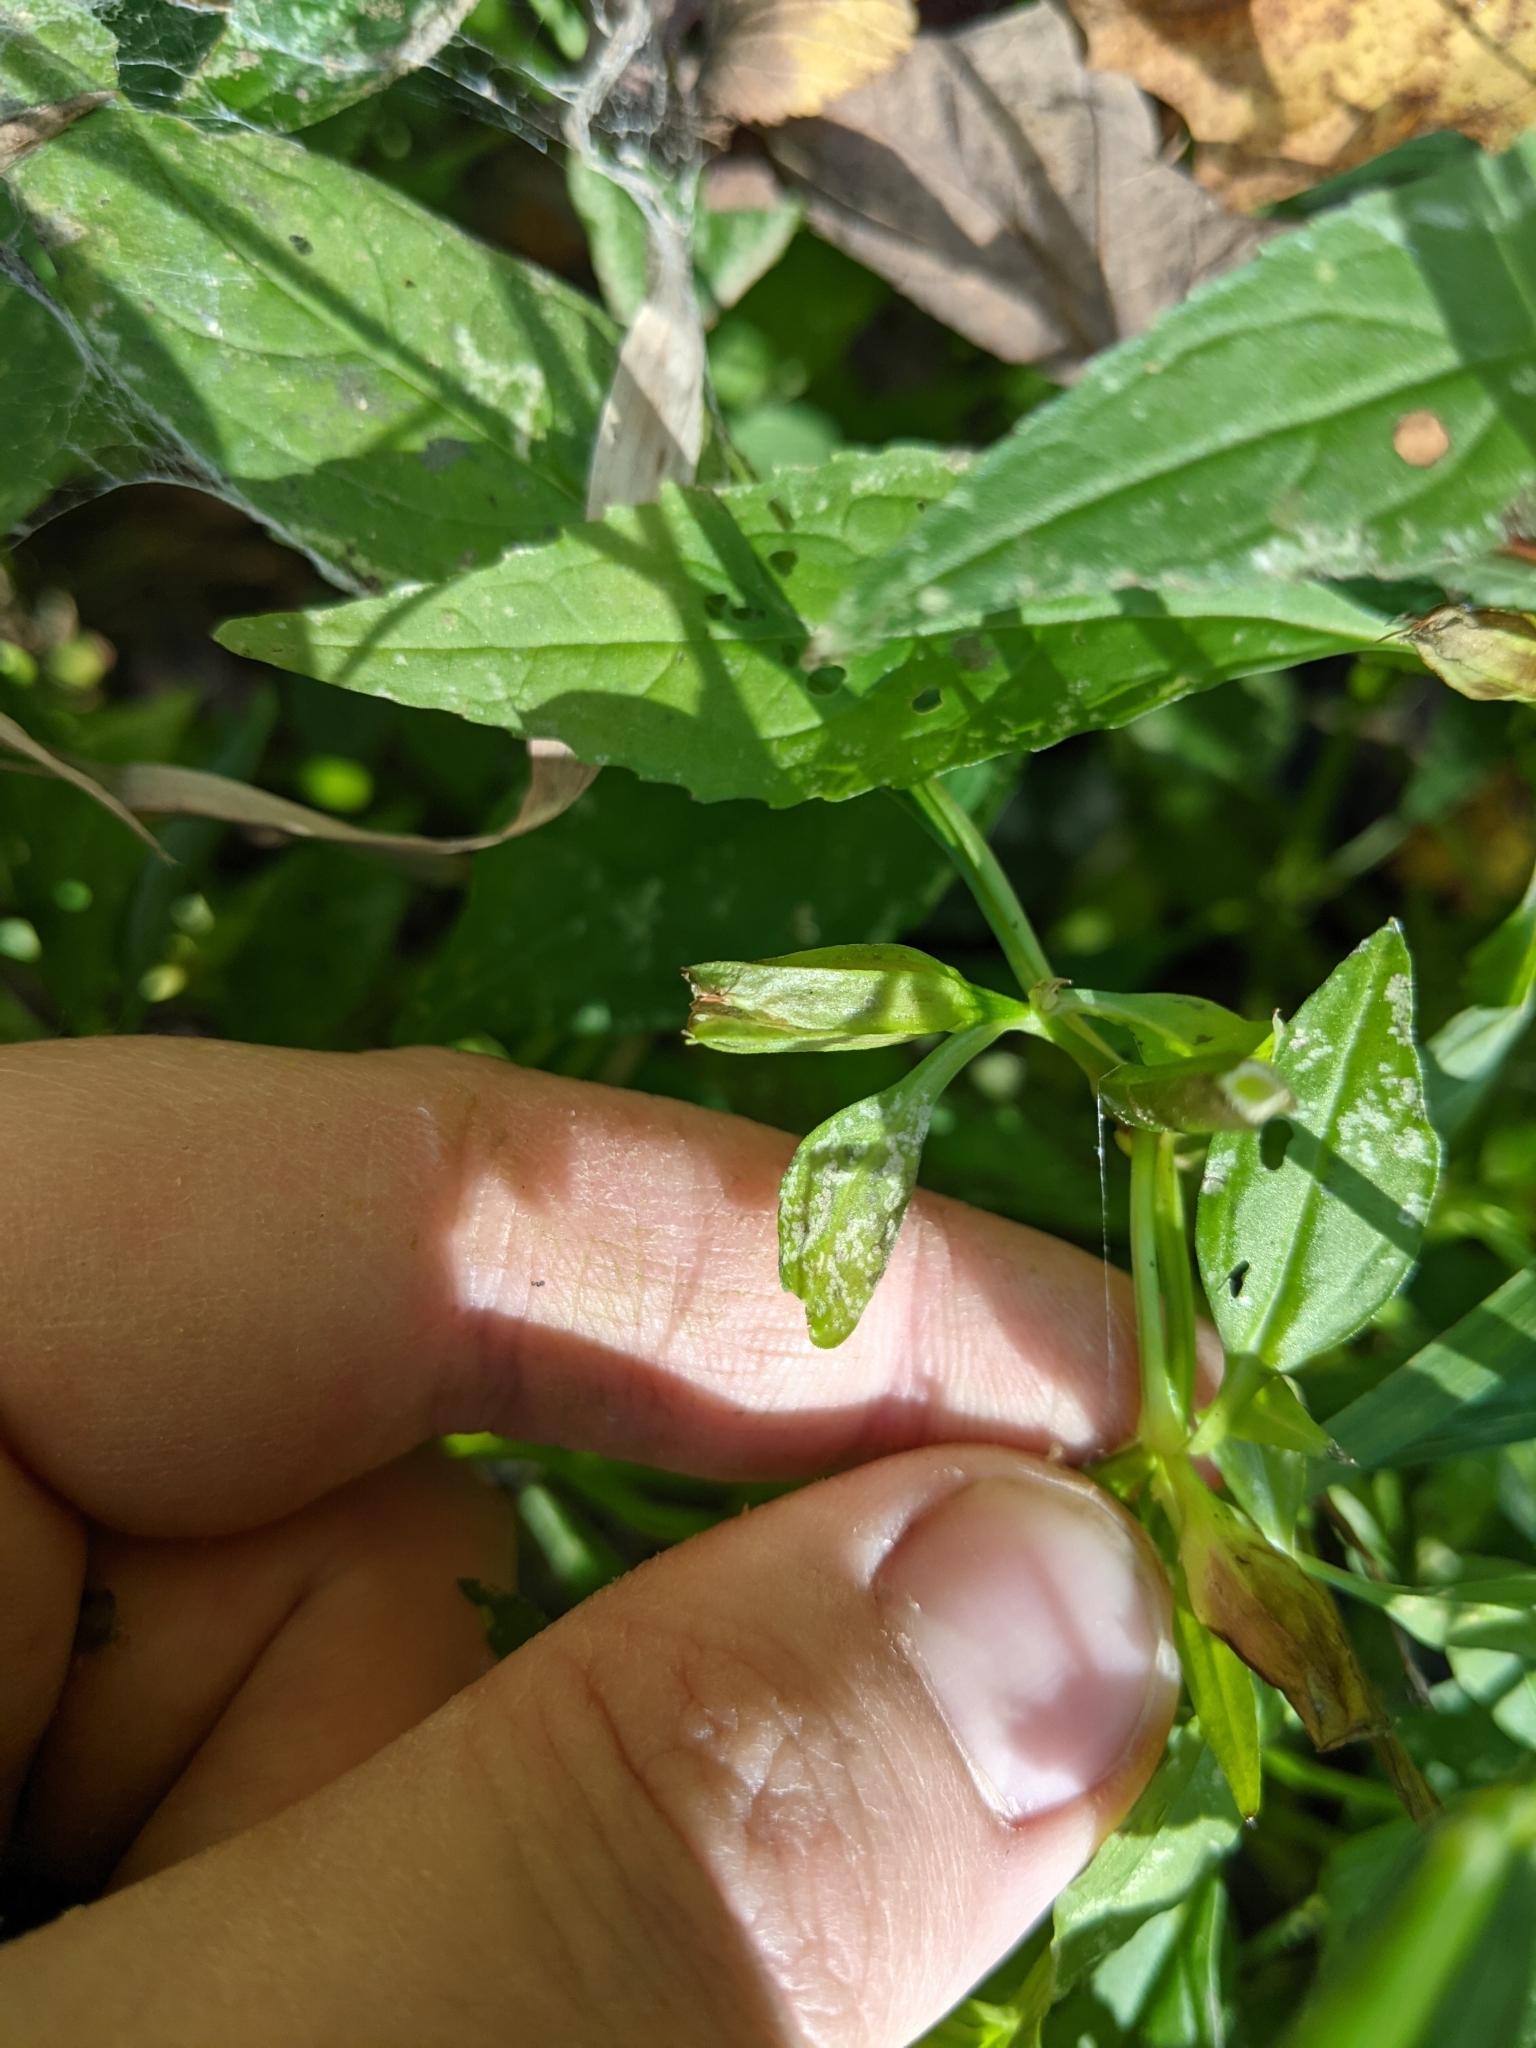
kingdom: Plantae
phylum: Tracheophyta
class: Magnoliopsida
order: Lamiales
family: Phrymaceae
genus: Mimulus
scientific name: Mimulus alatus
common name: Sharp-wing monkey-flower
